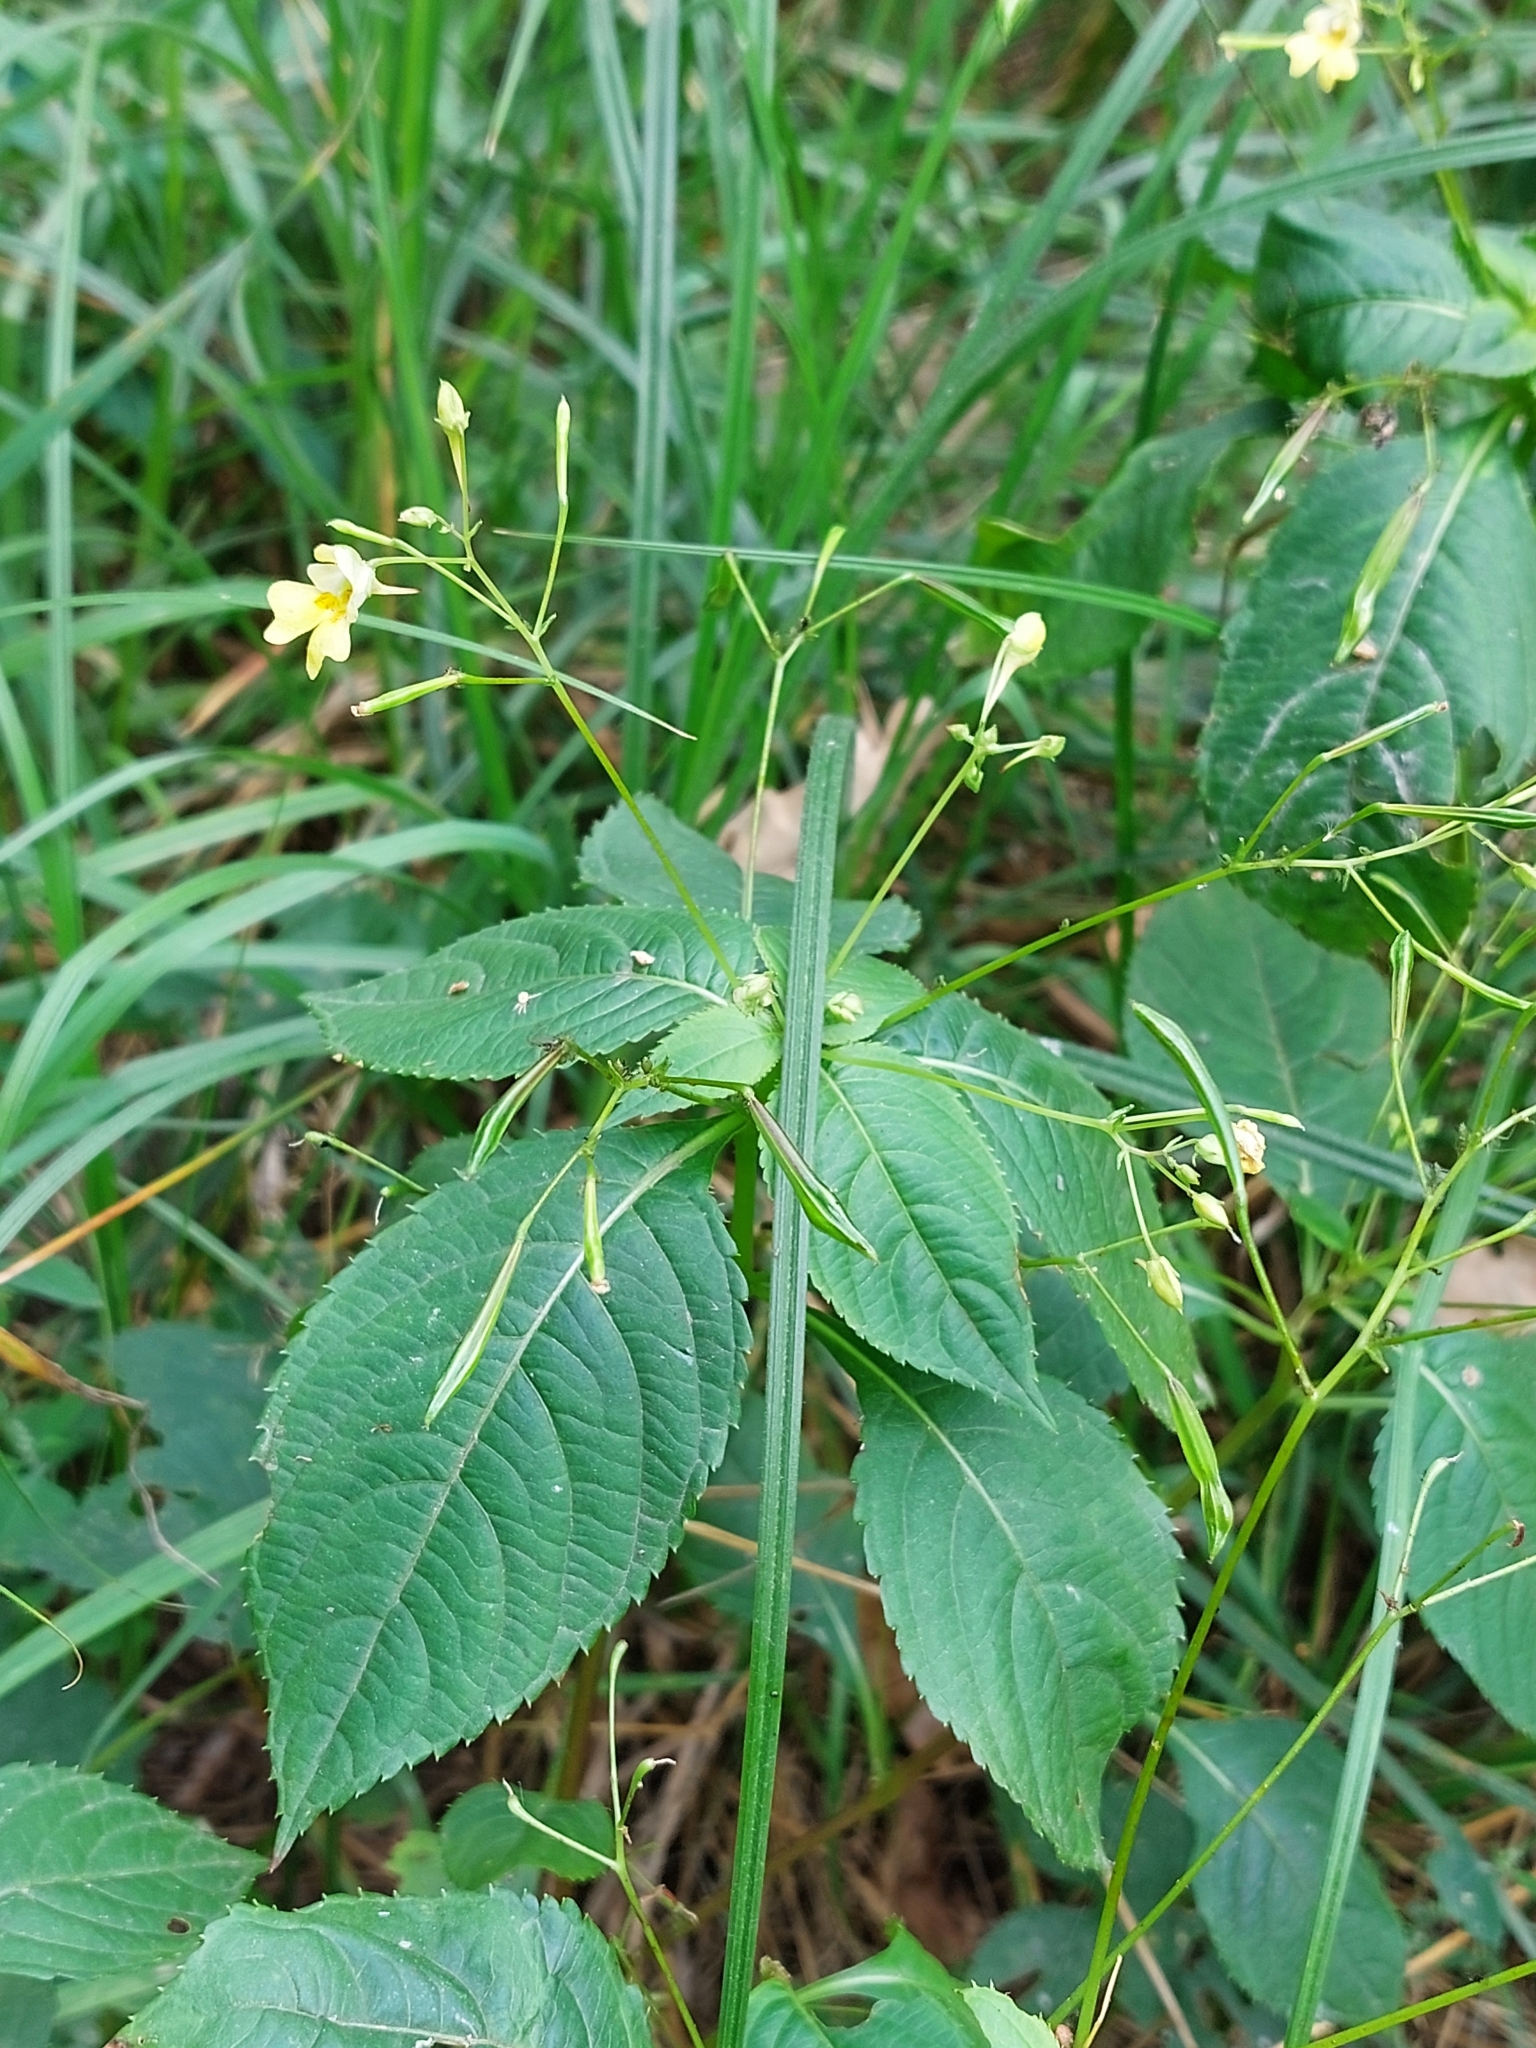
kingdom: Plantae
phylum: Tracheophyta
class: Magnoliopsida
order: Ericales
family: Balsaminaceae
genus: Impatiens
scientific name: Impatiens parviflora
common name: Small balsam
